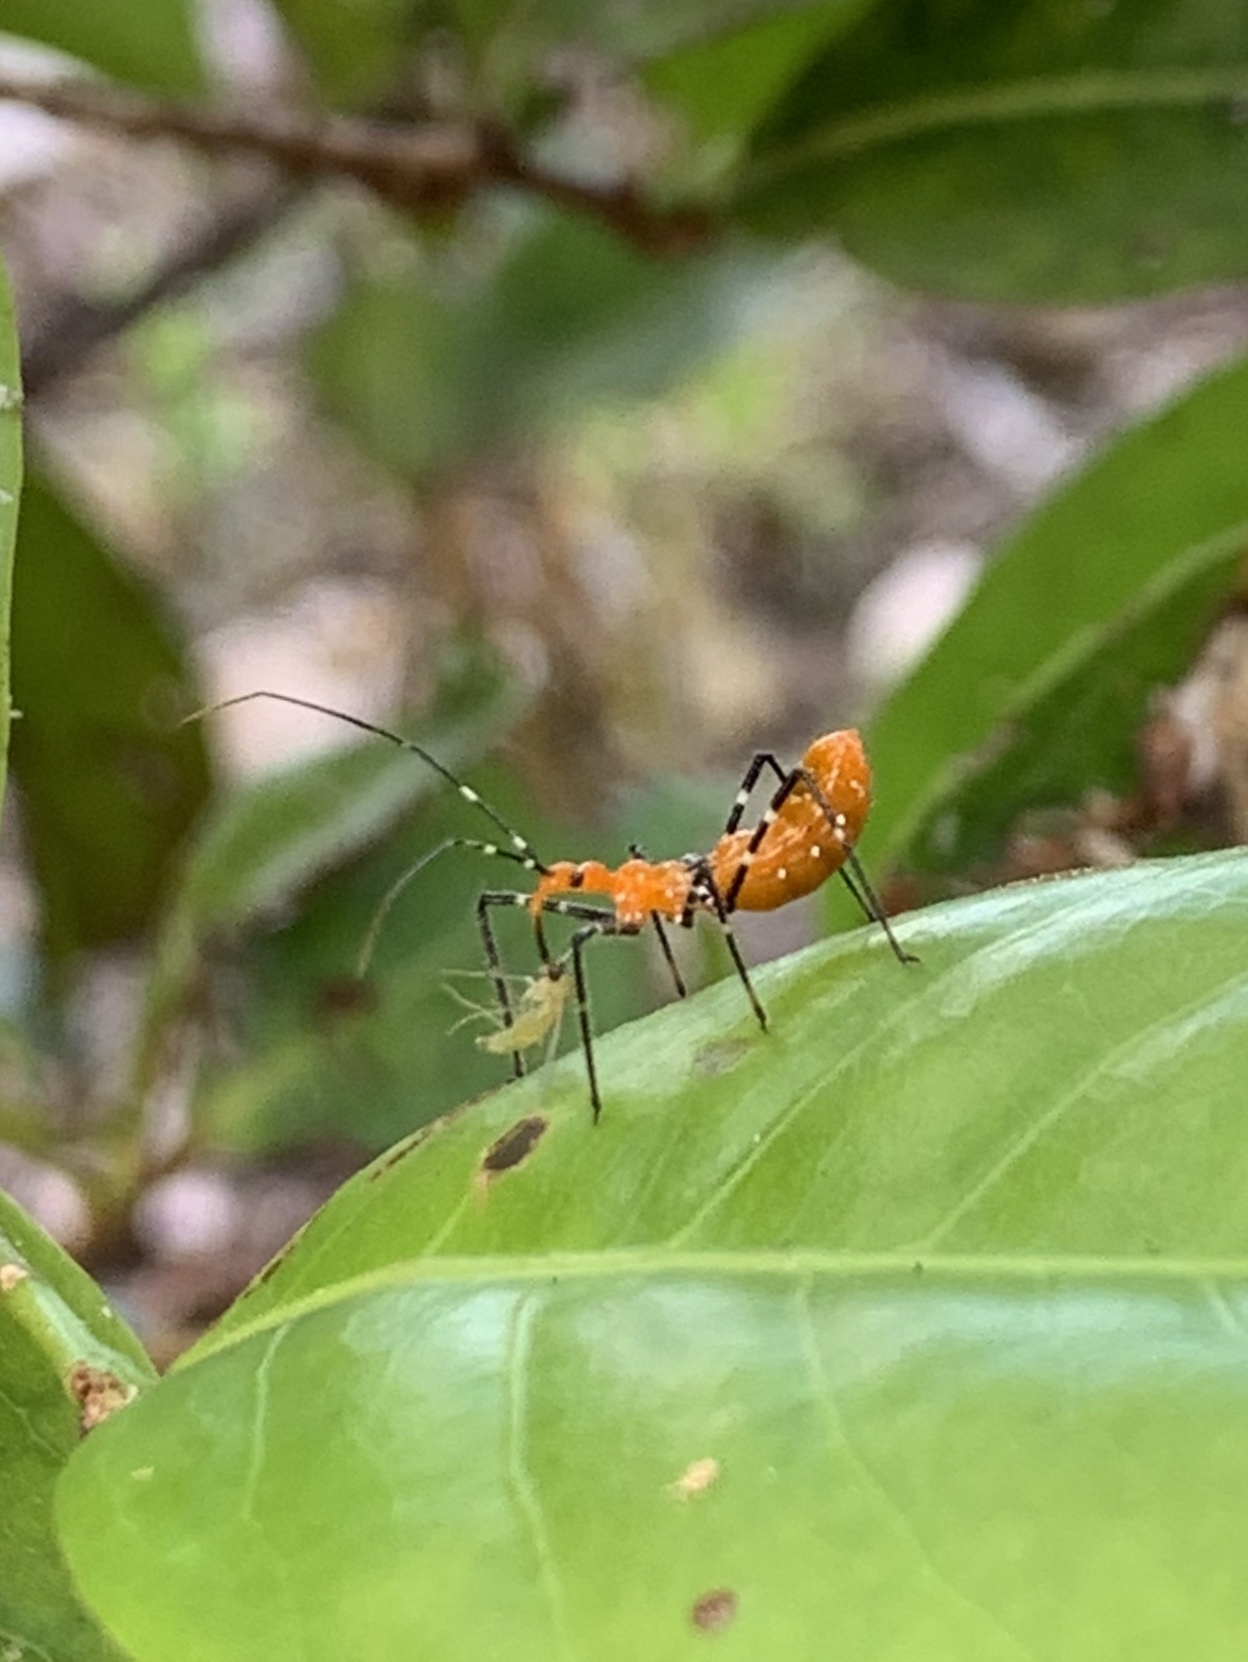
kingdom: Animalia
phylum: Arthropoda
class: Insecta
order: Hemiptera
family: Reduviidae
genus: Zelus
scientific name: Zelus longipes
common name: Milkweed assassin bug
